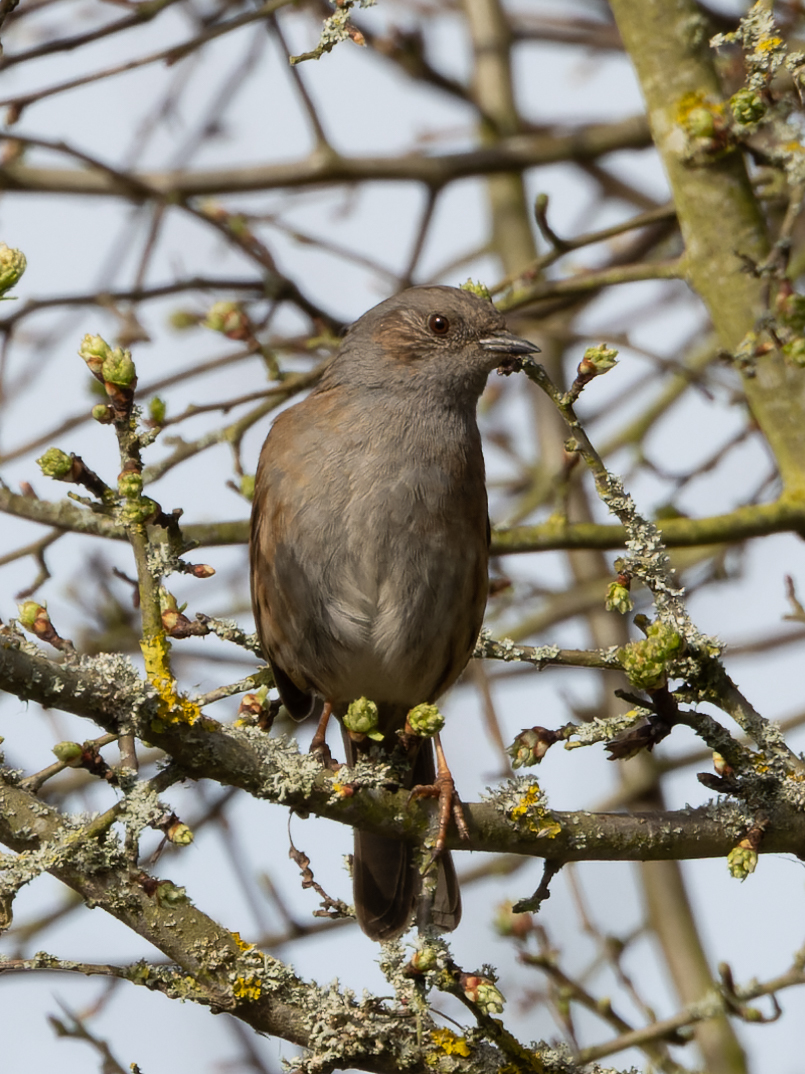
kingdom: Animalia
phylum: Chordata
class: Aves
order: Passeriformes
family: Prunellidae
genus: Prunella
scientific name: Prunella modularis
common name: Dunnock
